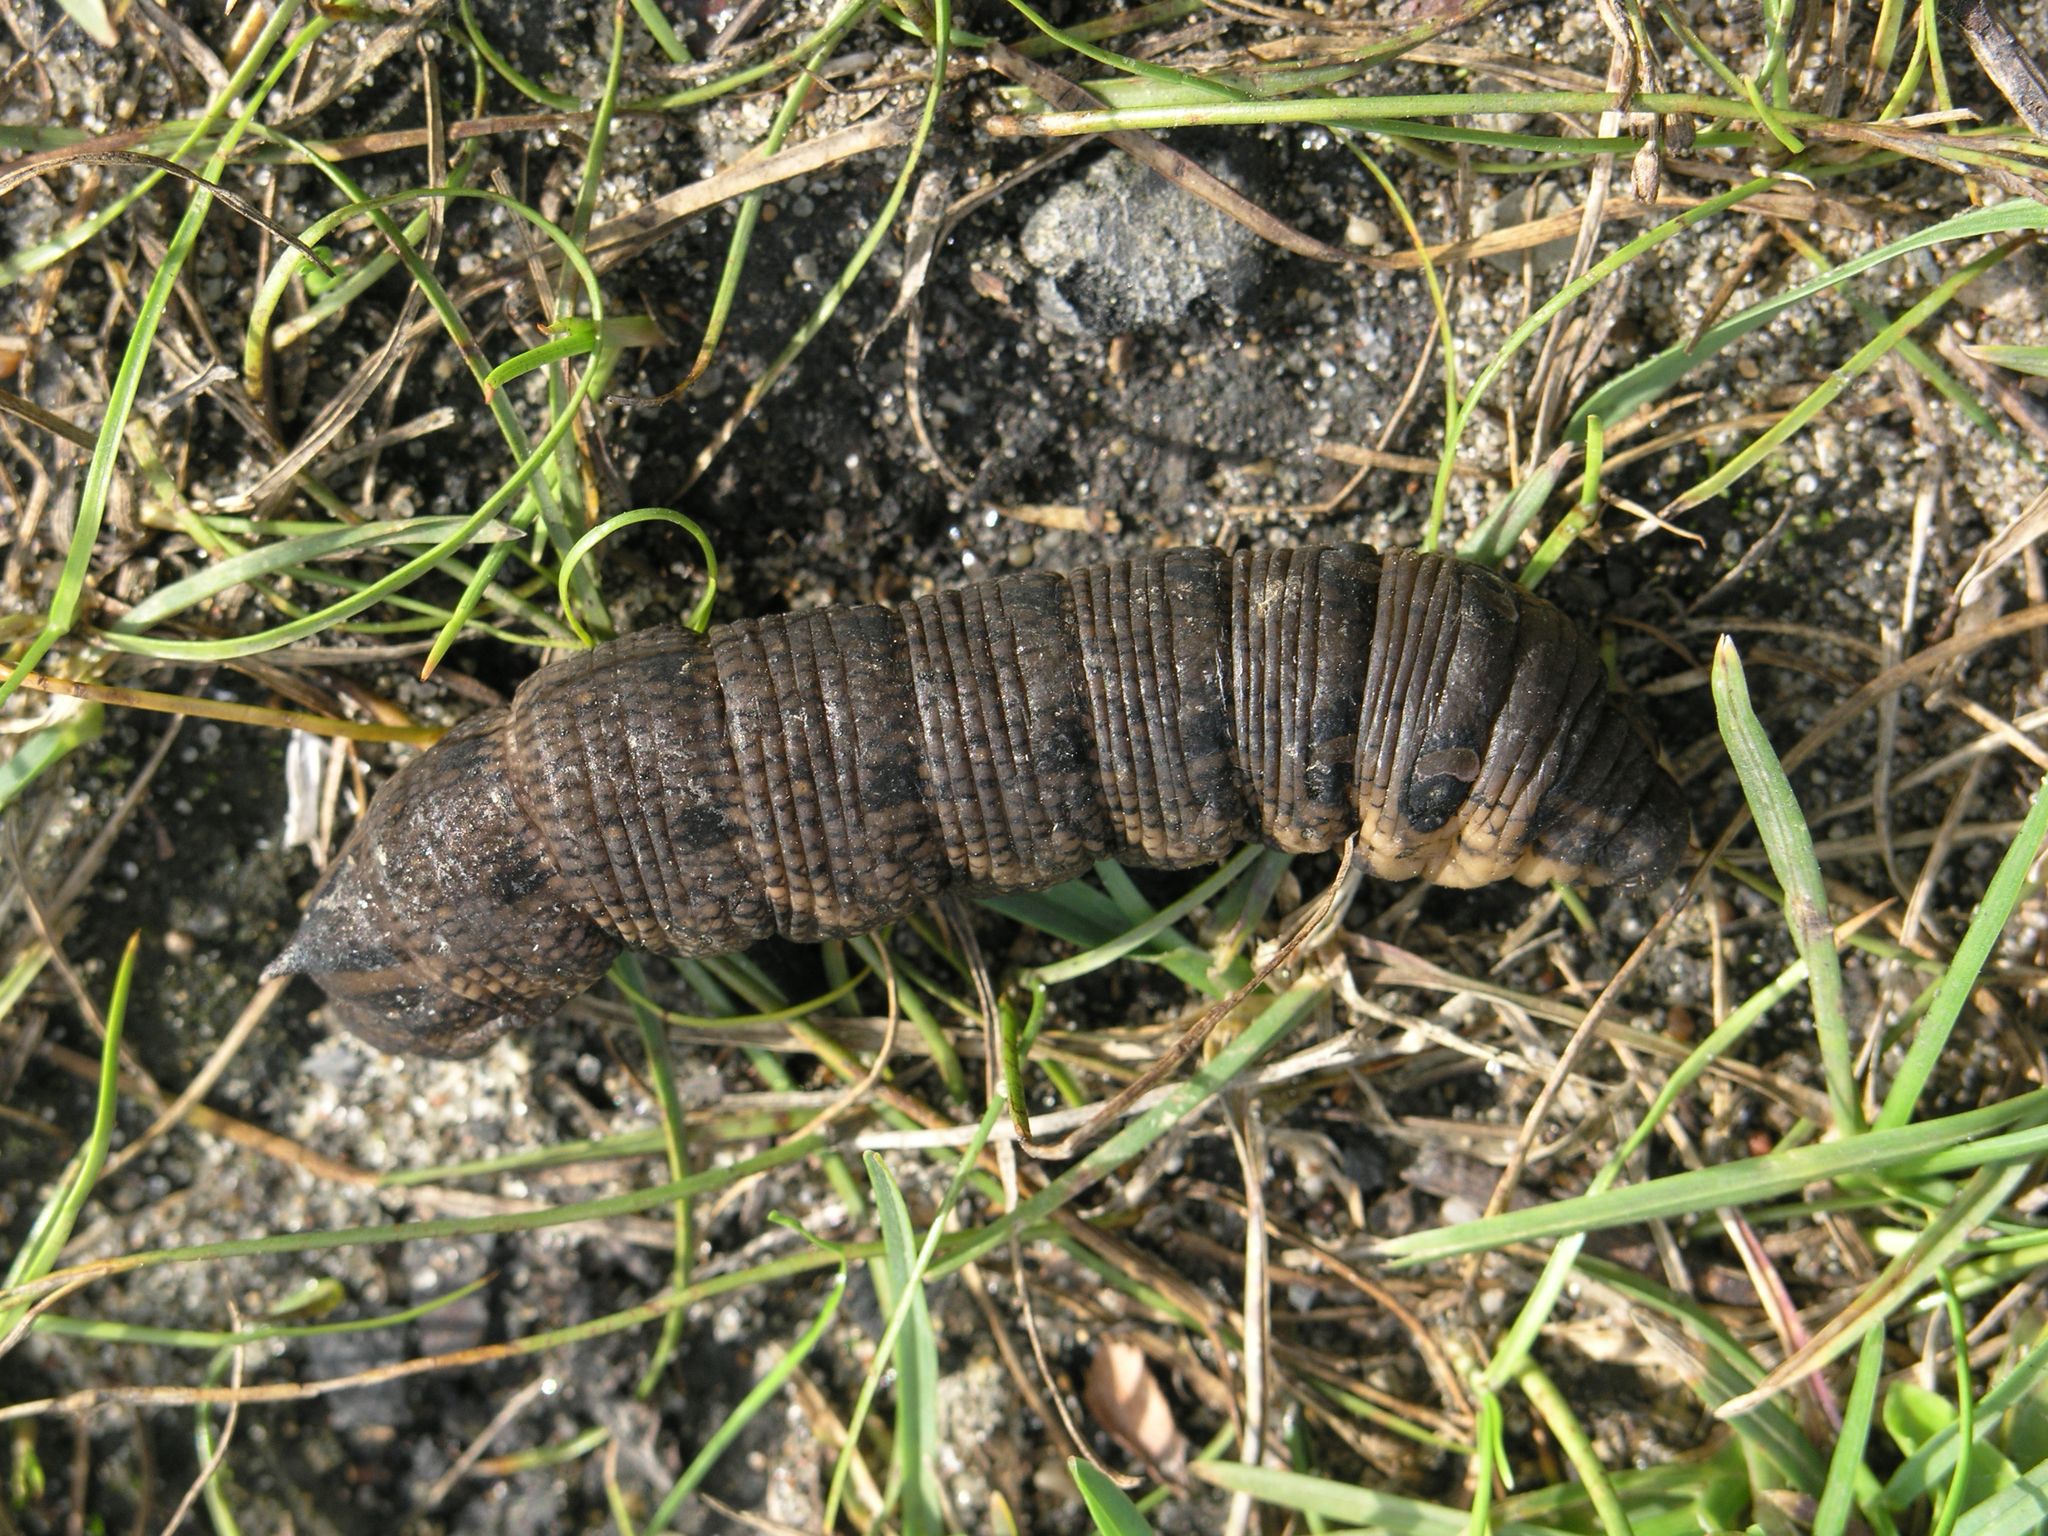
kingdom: Animalia
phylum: Arthropoda
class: Insecta
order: Lepidoptera
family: Sphingidae
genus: Deilephila
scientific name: Deilephila elpenor
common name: Elephant hawk-moth
